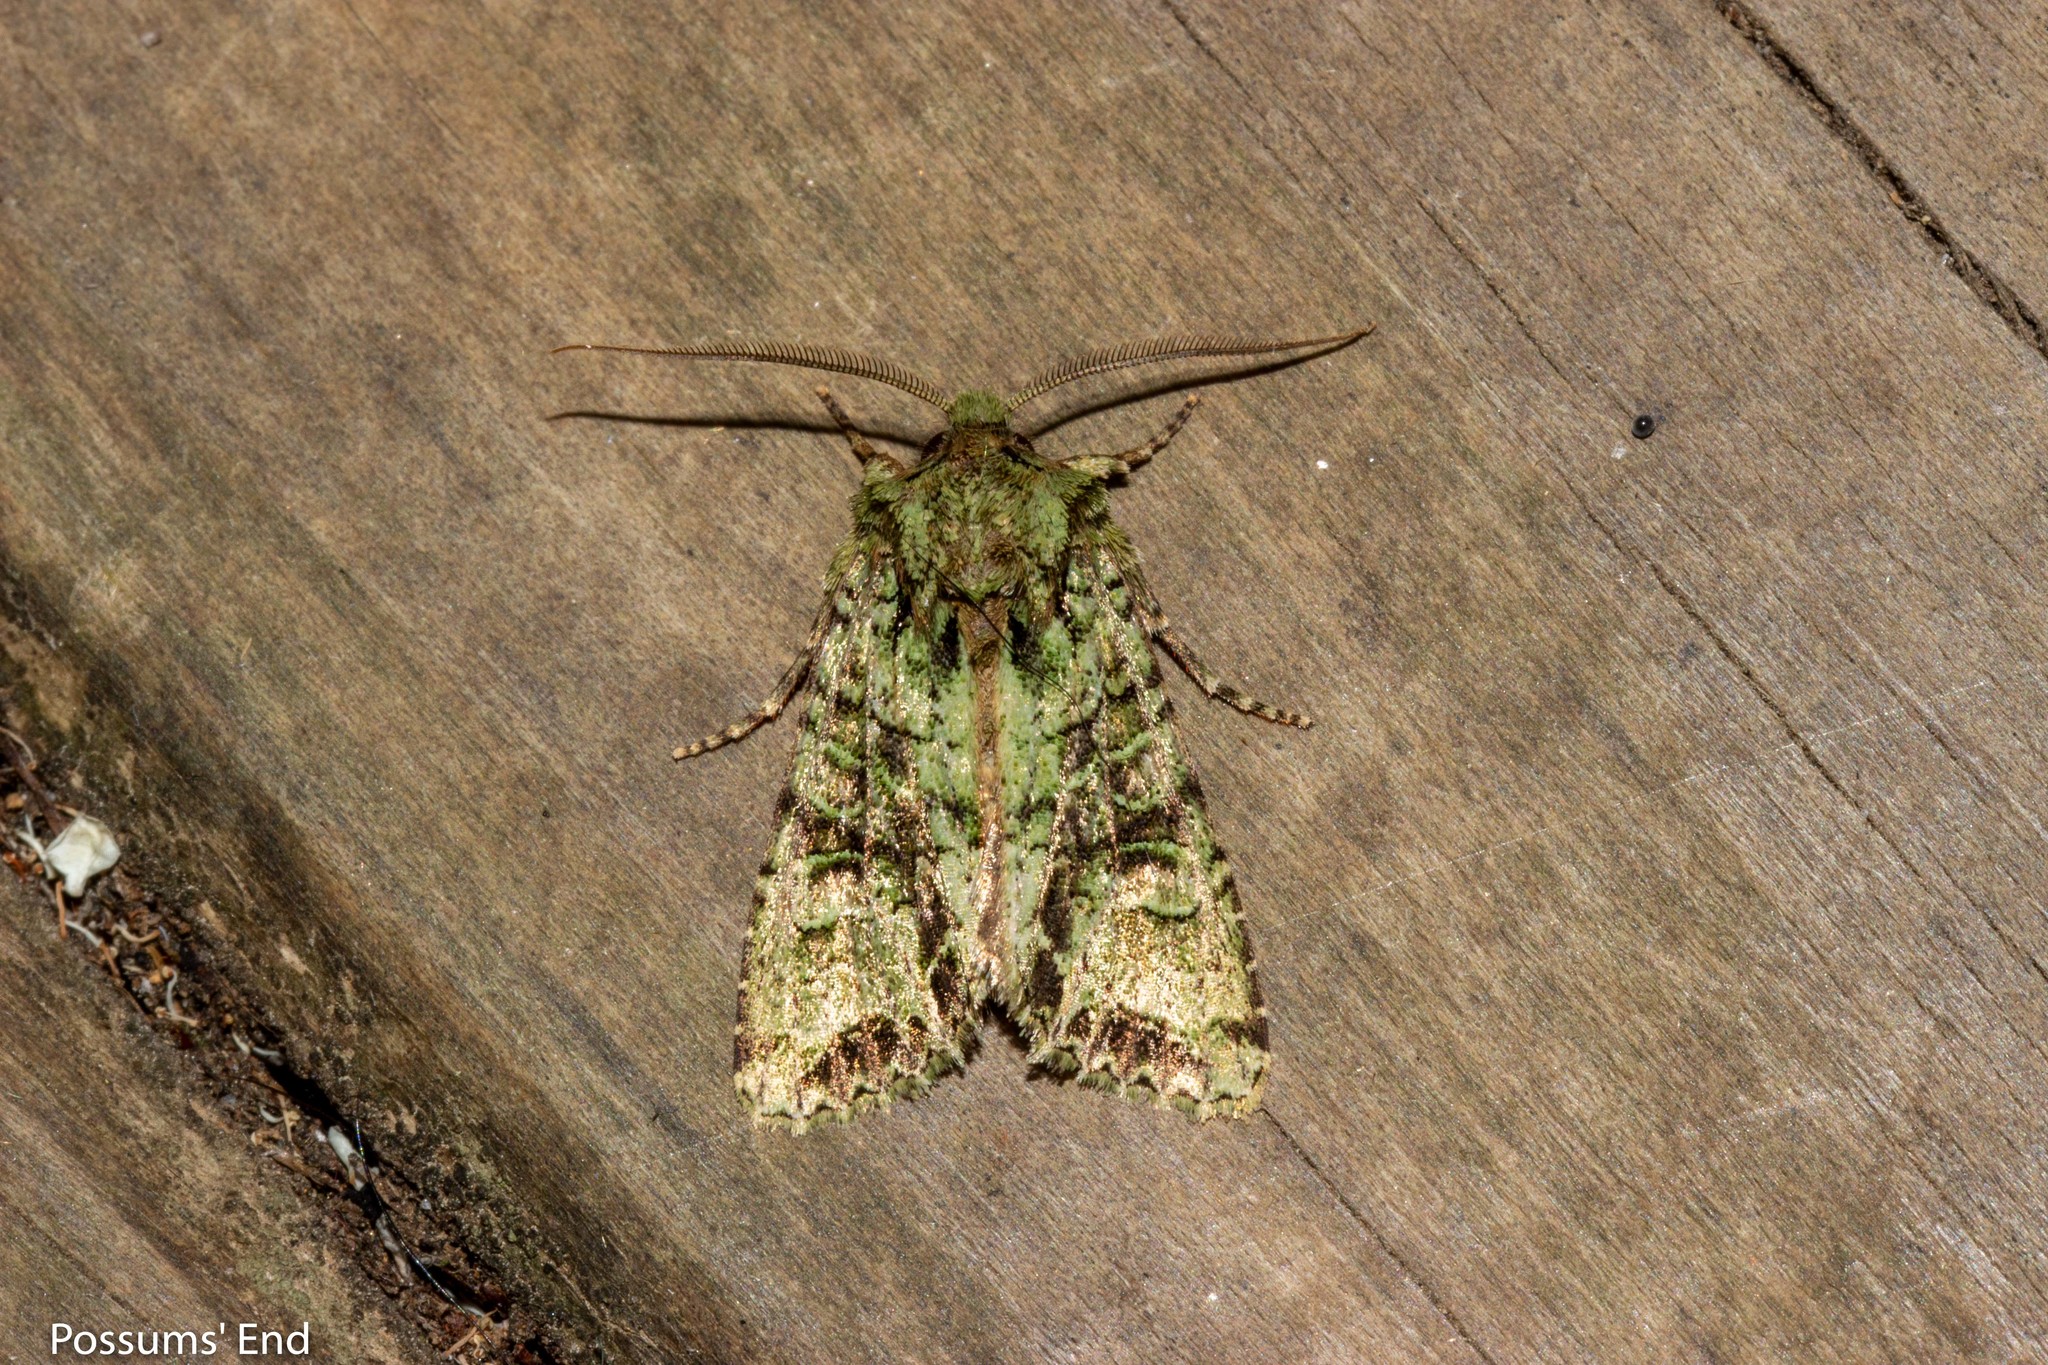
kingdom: Animalia
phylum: Arthropoda
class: Insecta
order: Lepidoptera
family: Noctuidae
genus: Ichneutica
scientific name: Ichneutica
